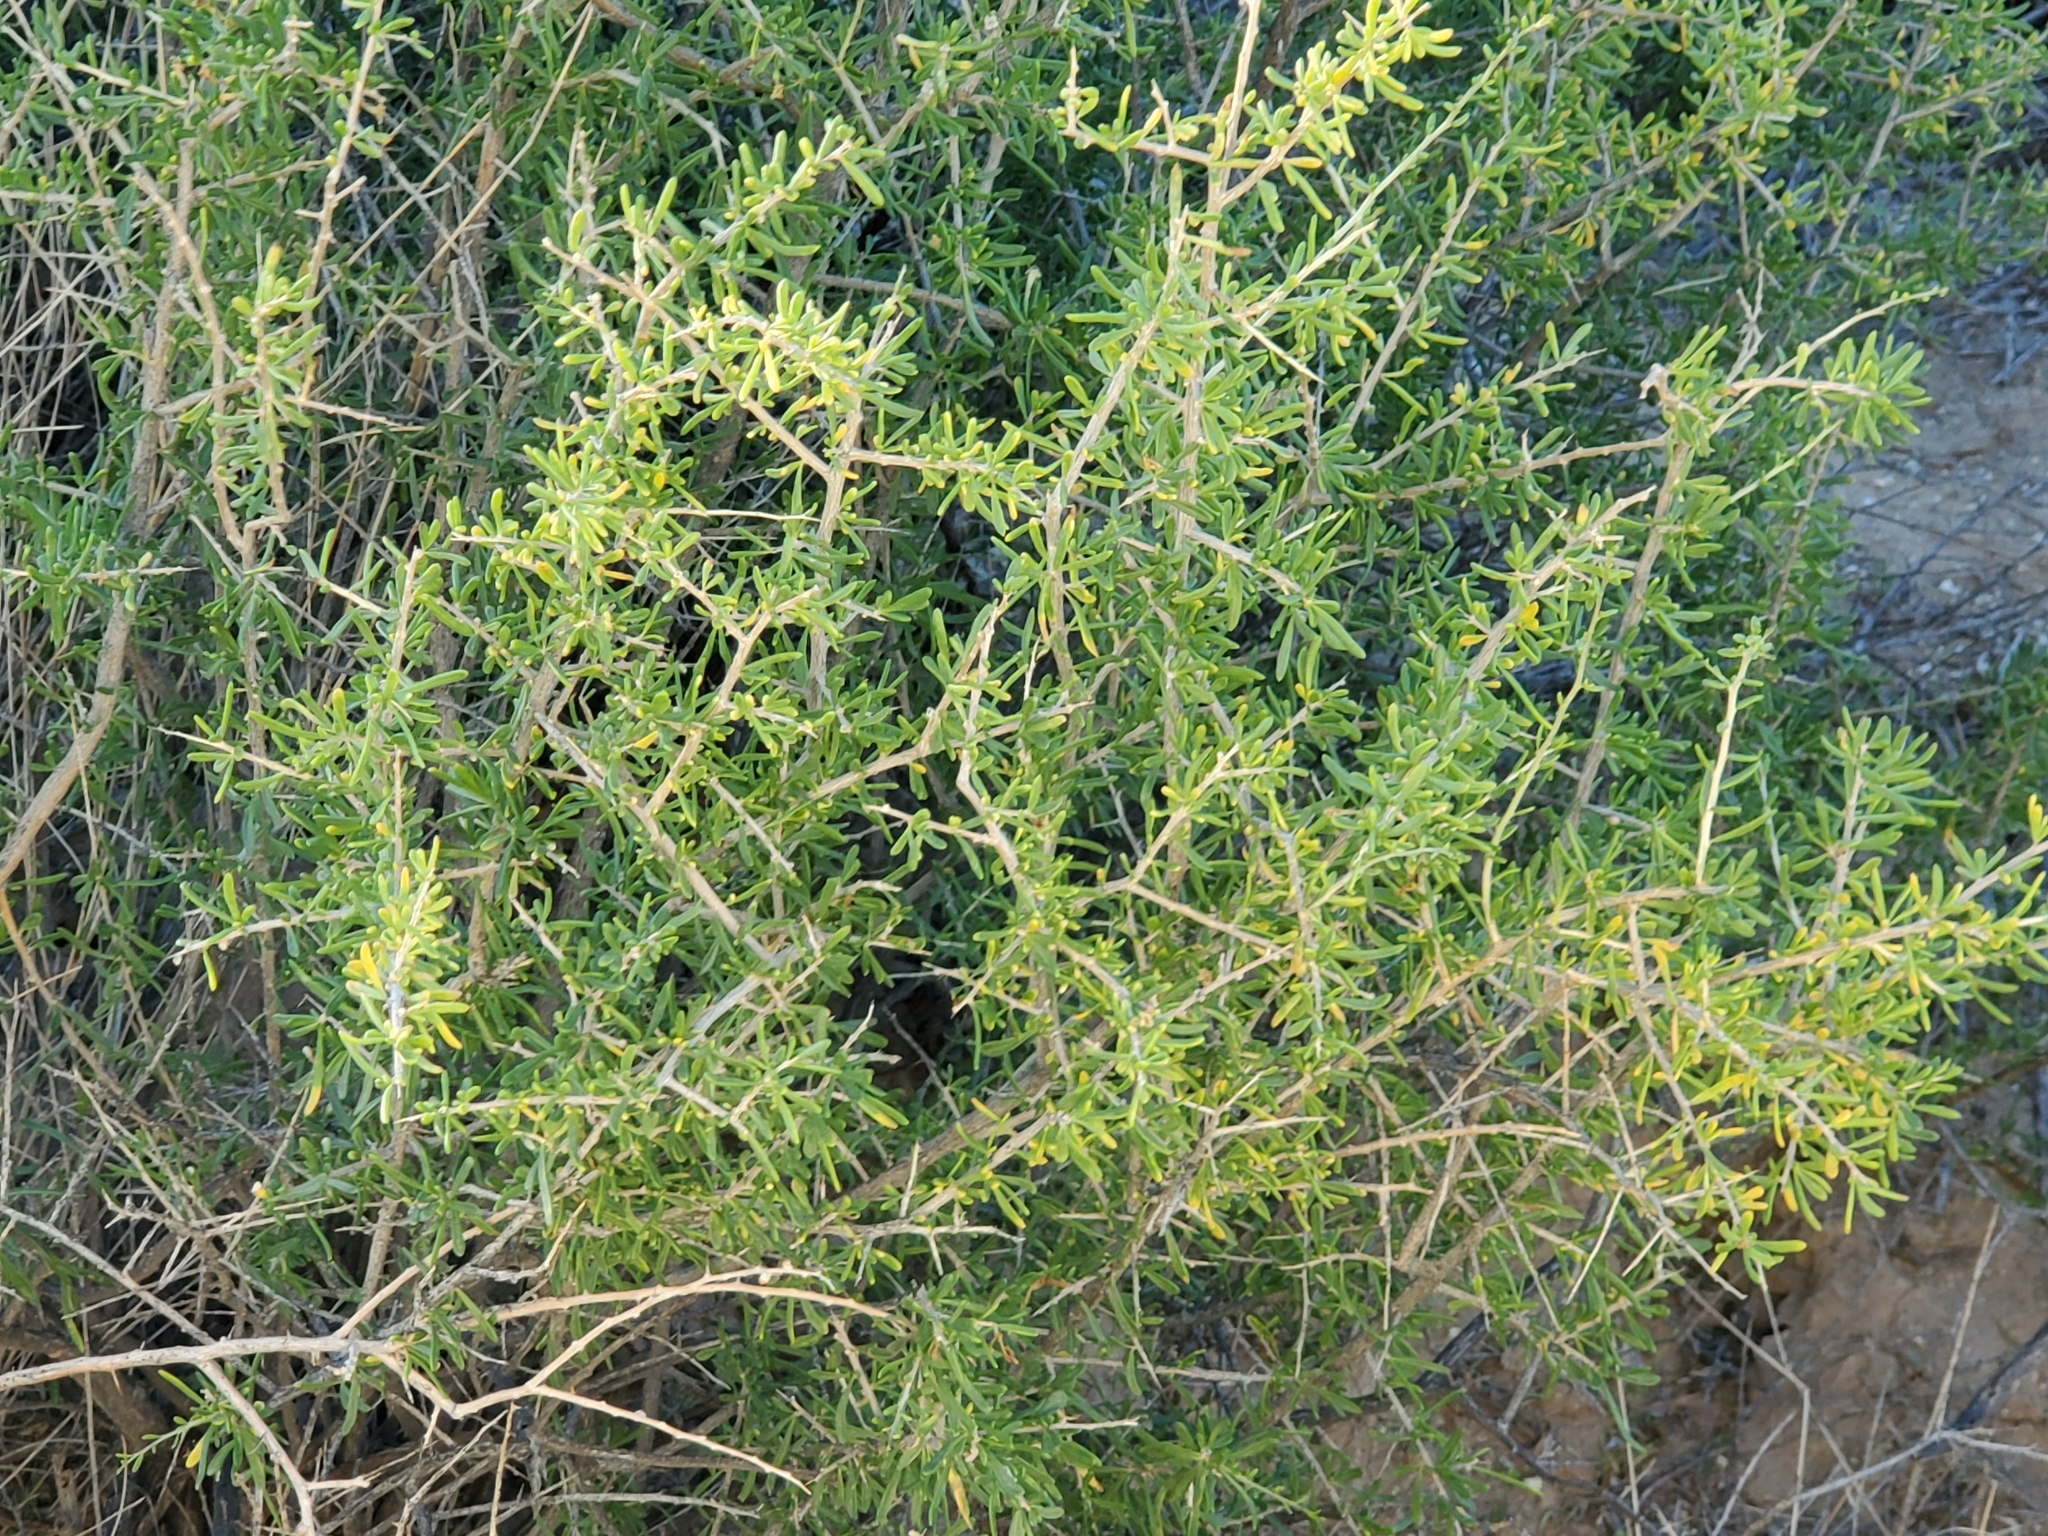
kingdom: Plantae
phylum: Tracheophyta
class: Magnoliopsida
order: Solanales
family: Solanaceae
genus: Lycium
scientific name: Lycium andersonii
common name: Water-jacket
